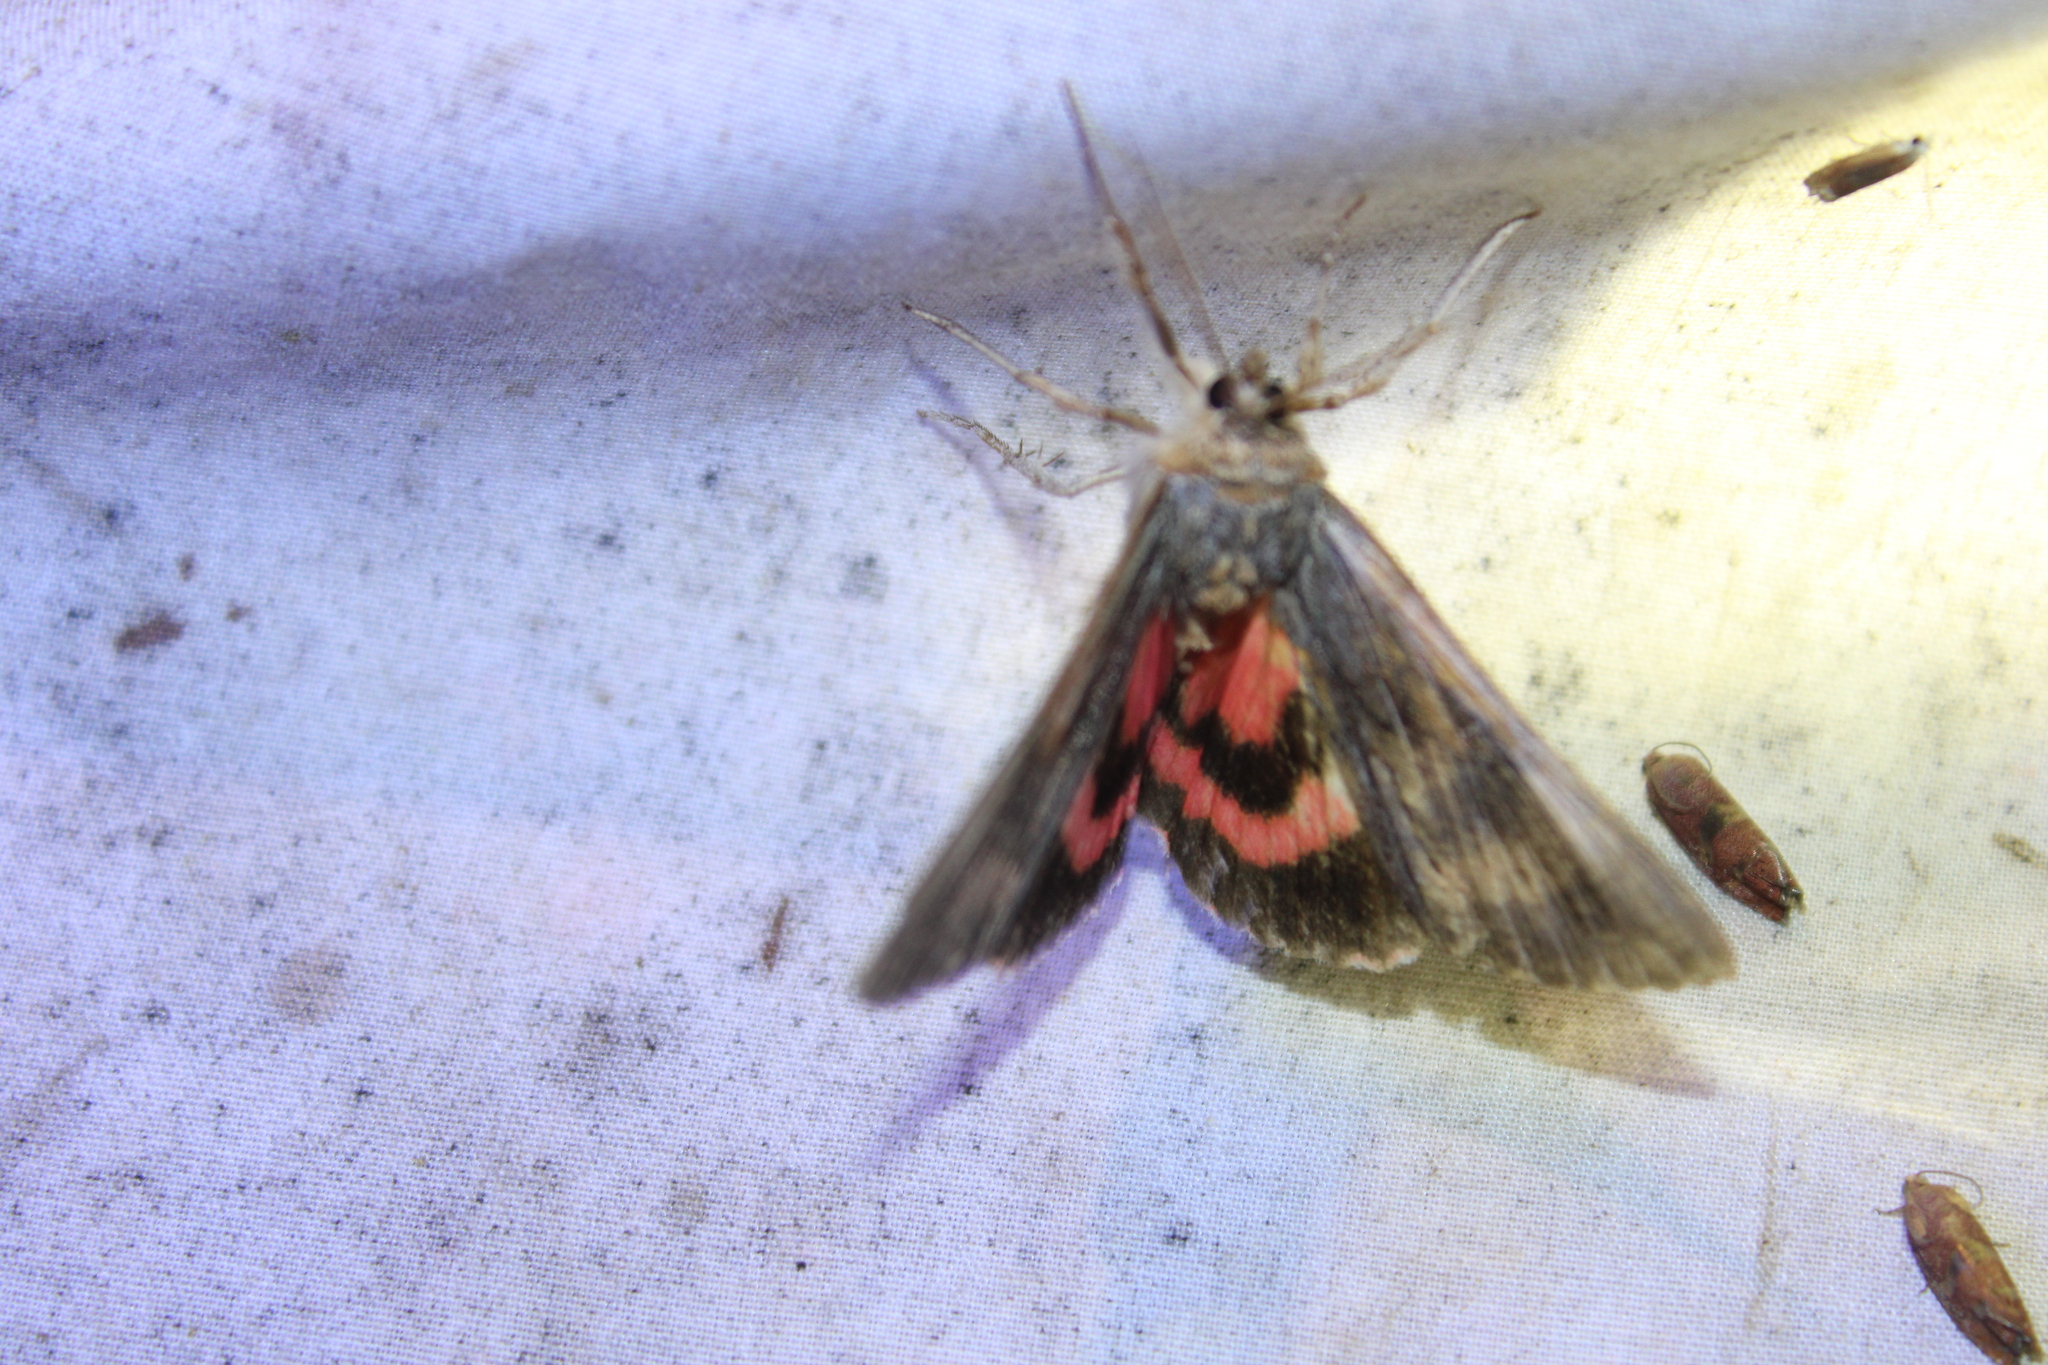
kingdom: Animalia
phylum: Arthropoda
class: Insecta
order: Lepidoptera
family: Erebidae
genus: Catocala
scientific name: Catocala herodias
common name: Pine barrens underwing
